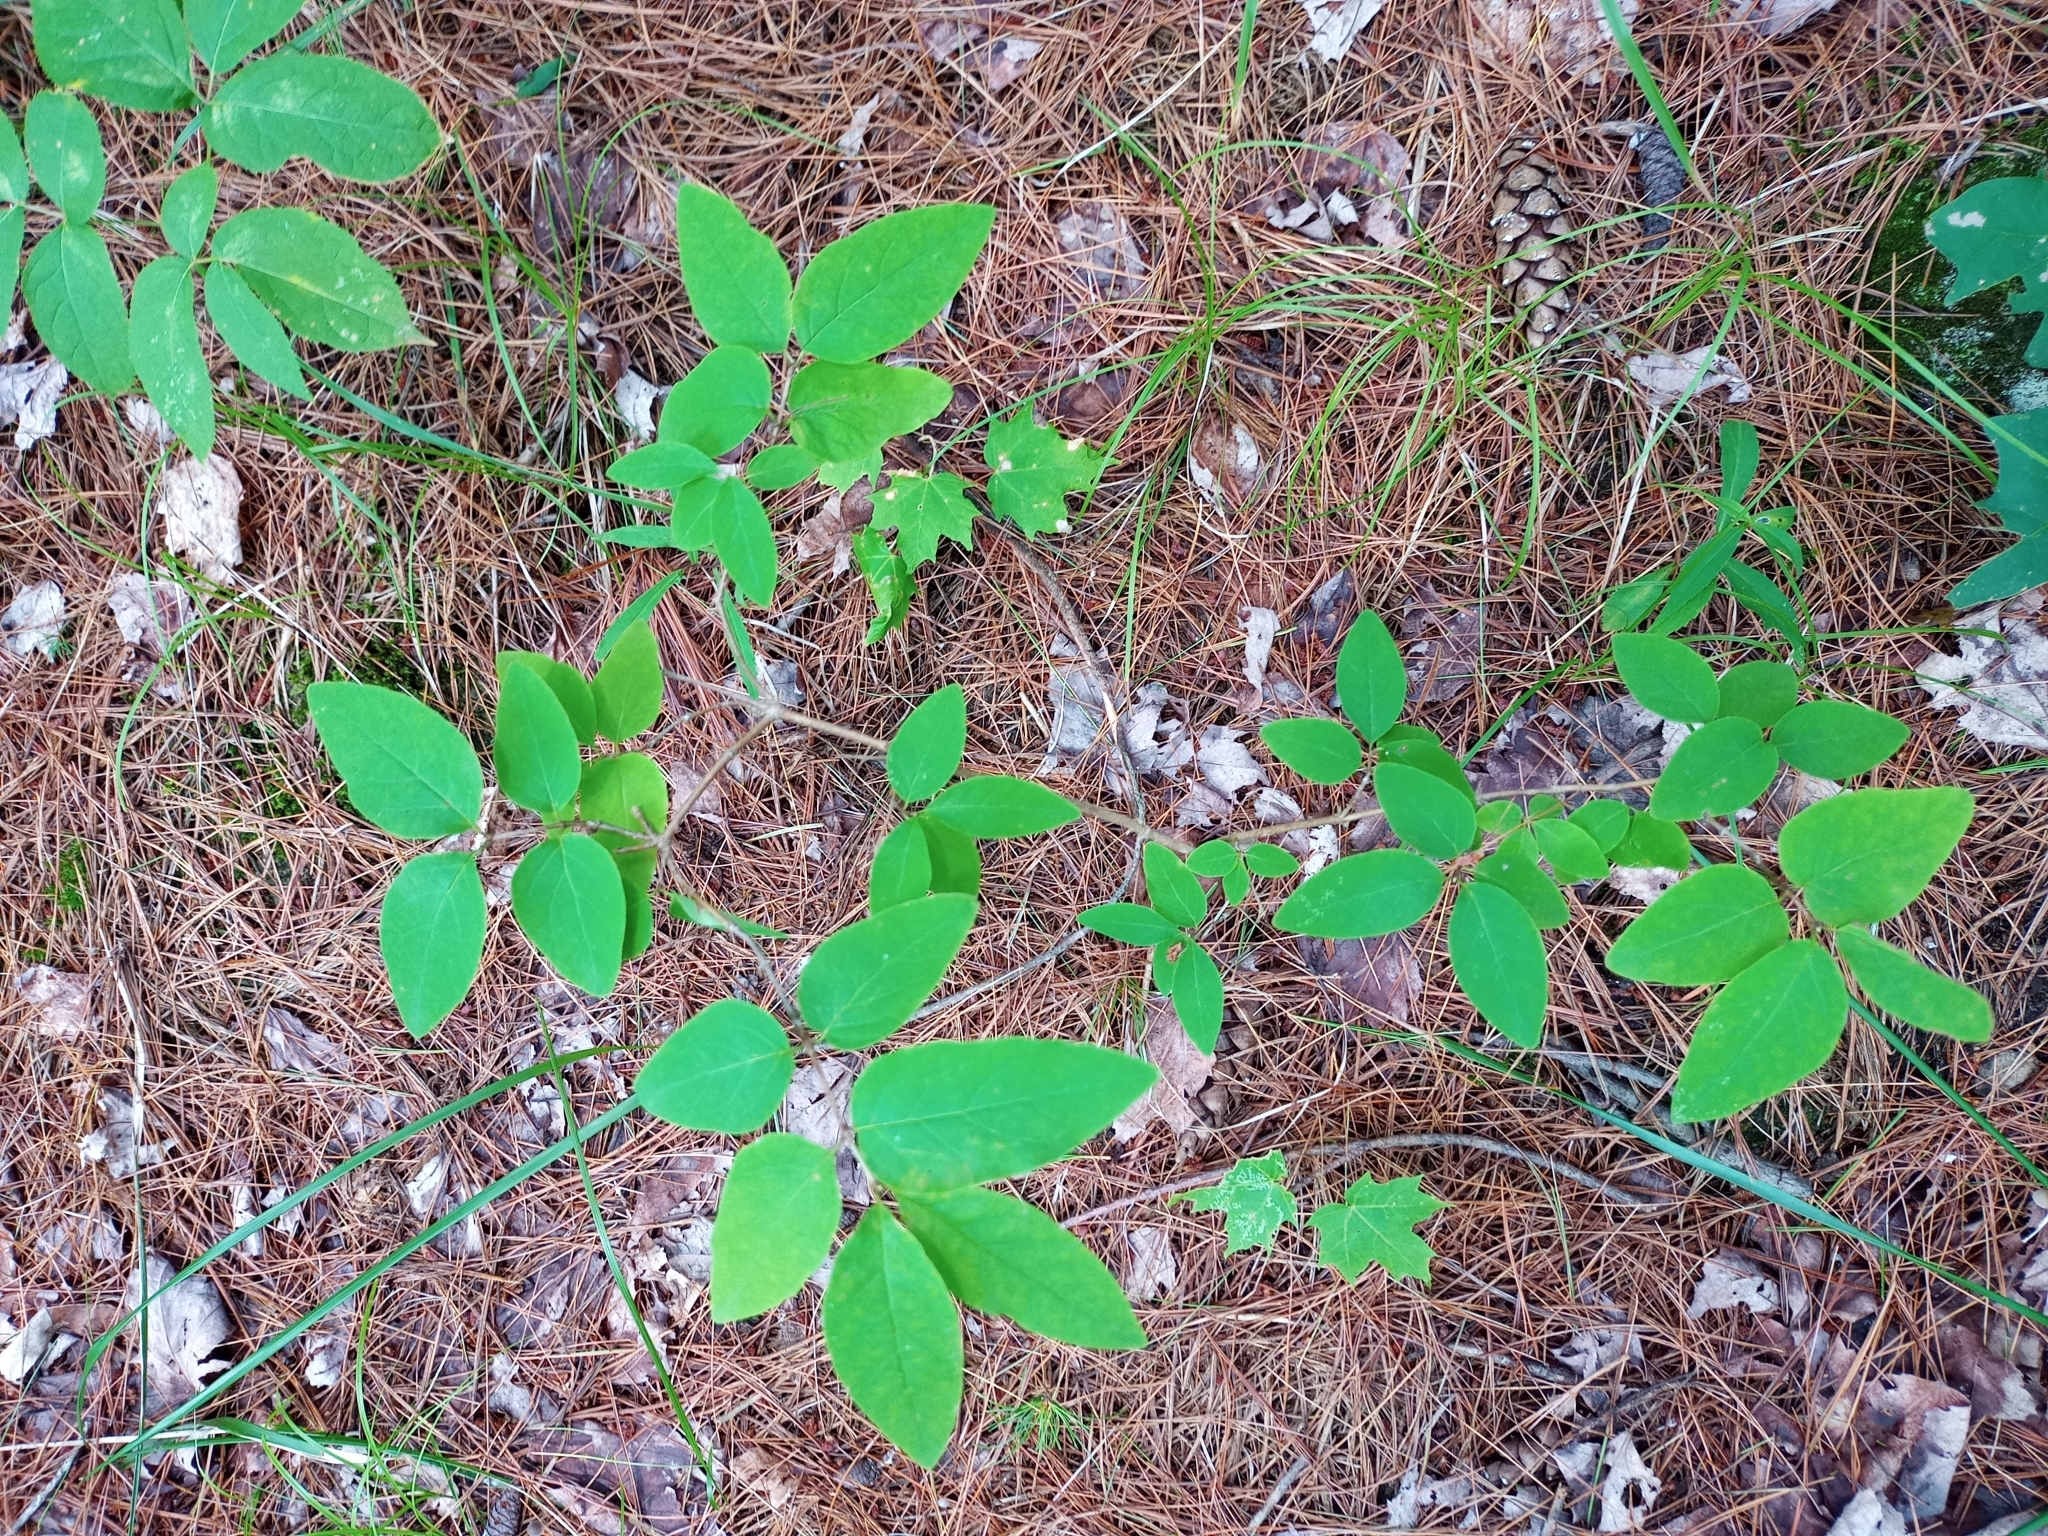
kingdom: Plantae
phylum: Tracheophyta
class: Magnoliopsida
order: Dipsacales
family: Caprifoliaceae
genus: Lonicera
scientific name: Lonicera canadensis
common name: American fly-honeysuckle
